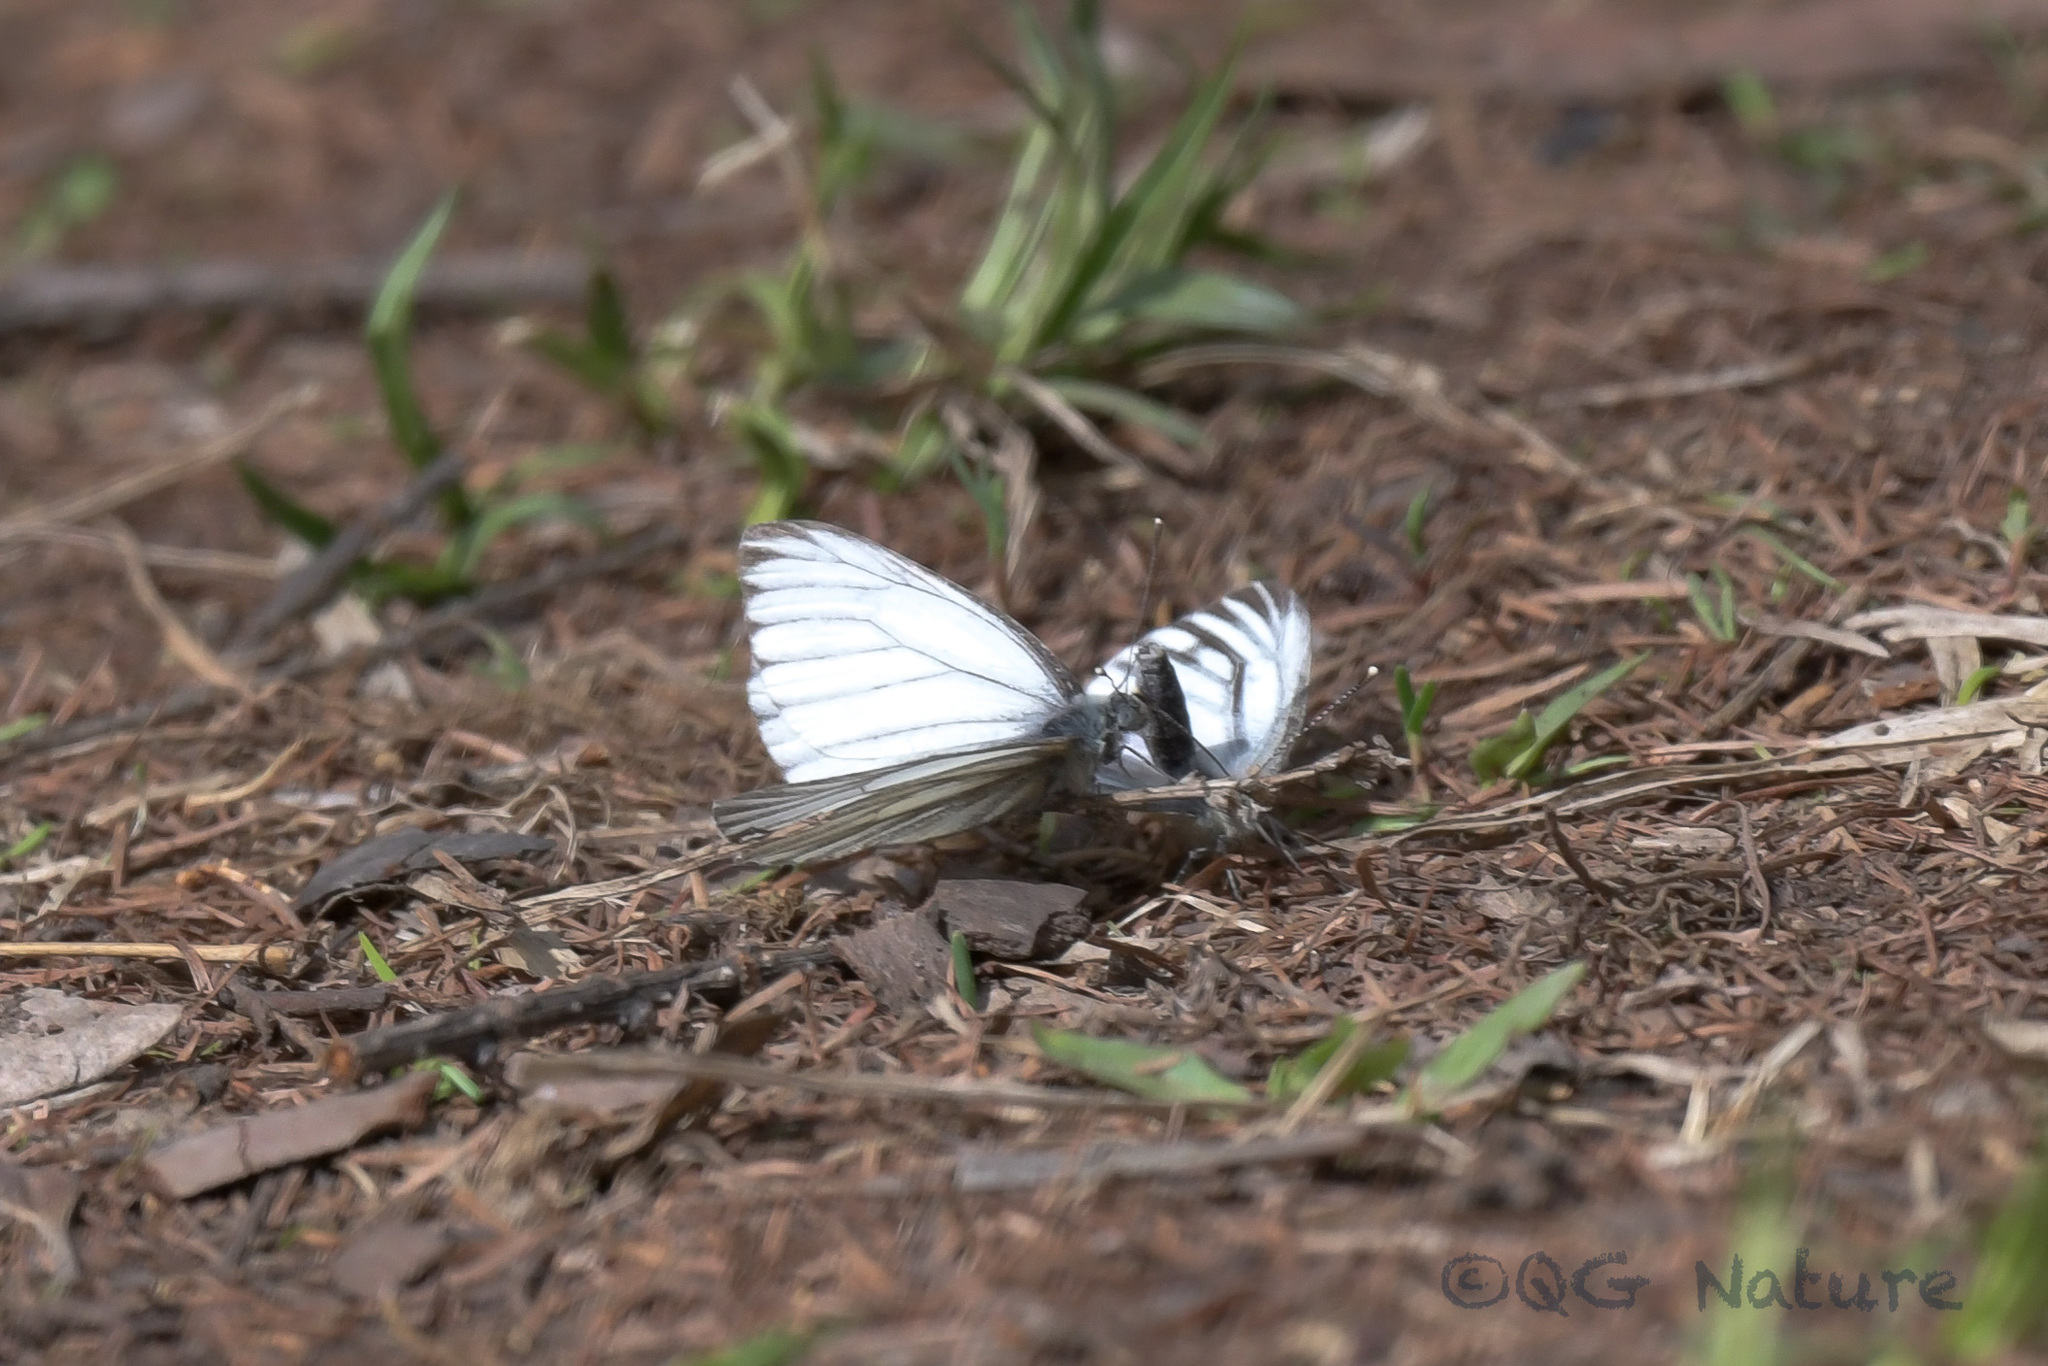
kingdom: Animalia
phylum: Arthropoda
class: Insecta
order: Lepidoptera
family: Pieridae
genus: Pieris
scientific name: Pieris dulcinea
